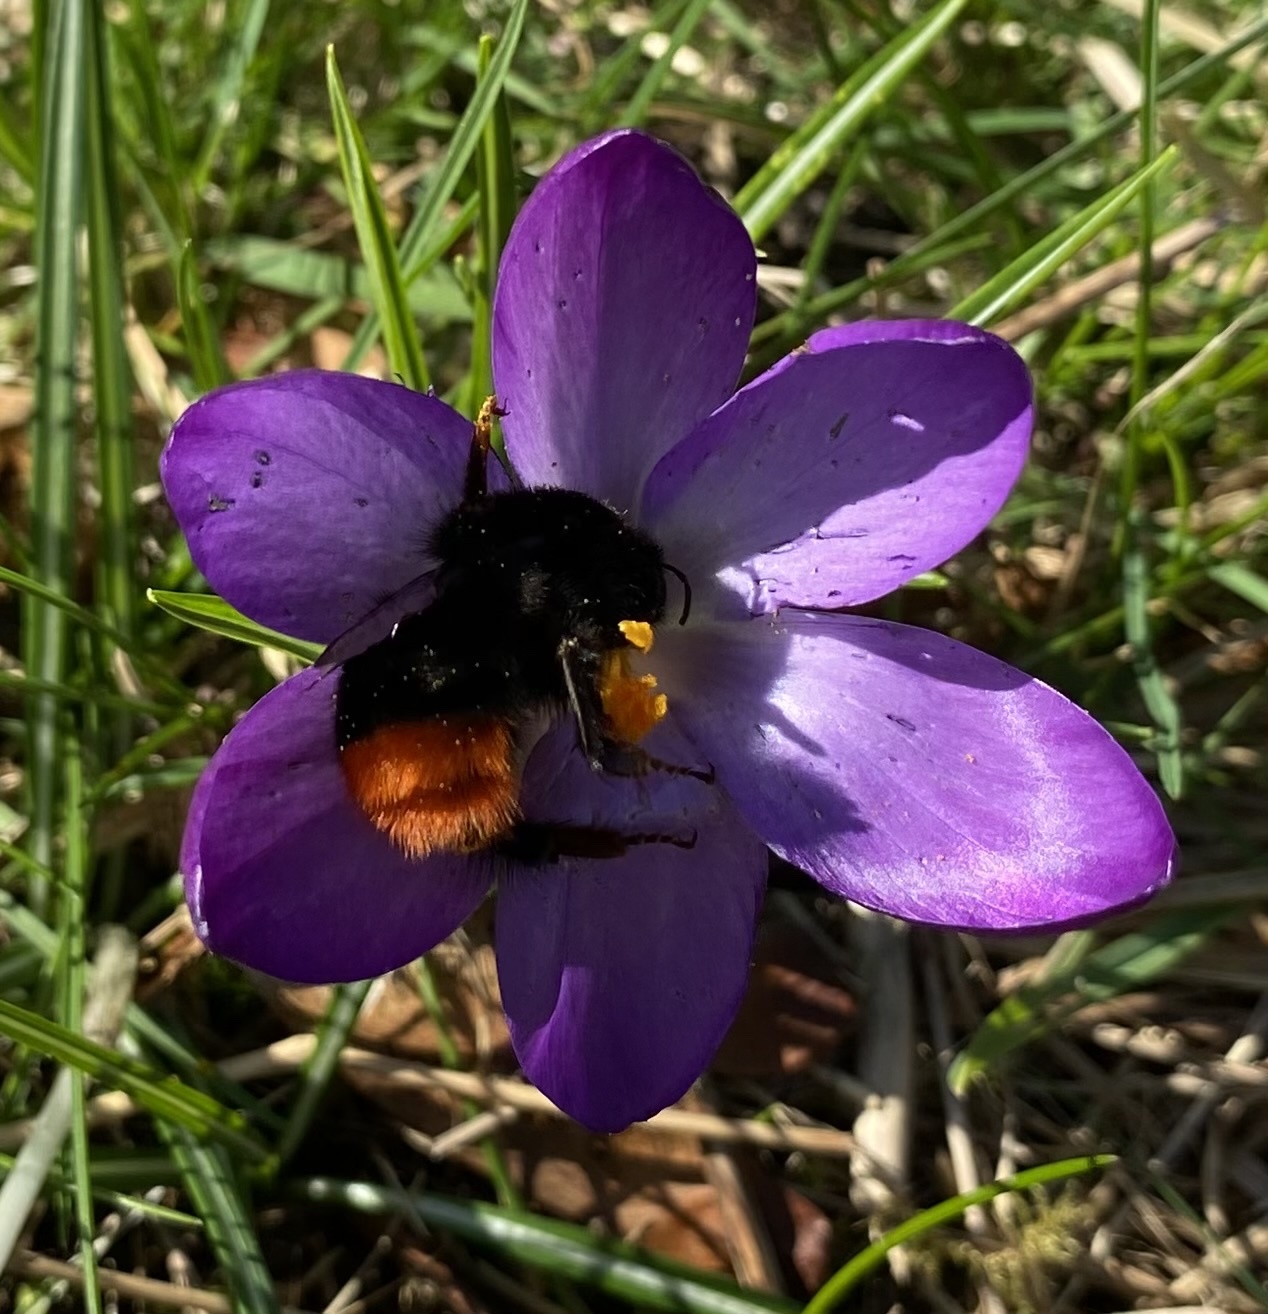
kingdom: Animalia
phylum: Arthropoda
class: Insecta
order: Hymenoptera
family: Apidae
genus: Bombus
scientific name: Bombus lapidarius
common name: Large red-tailed humble-bee
